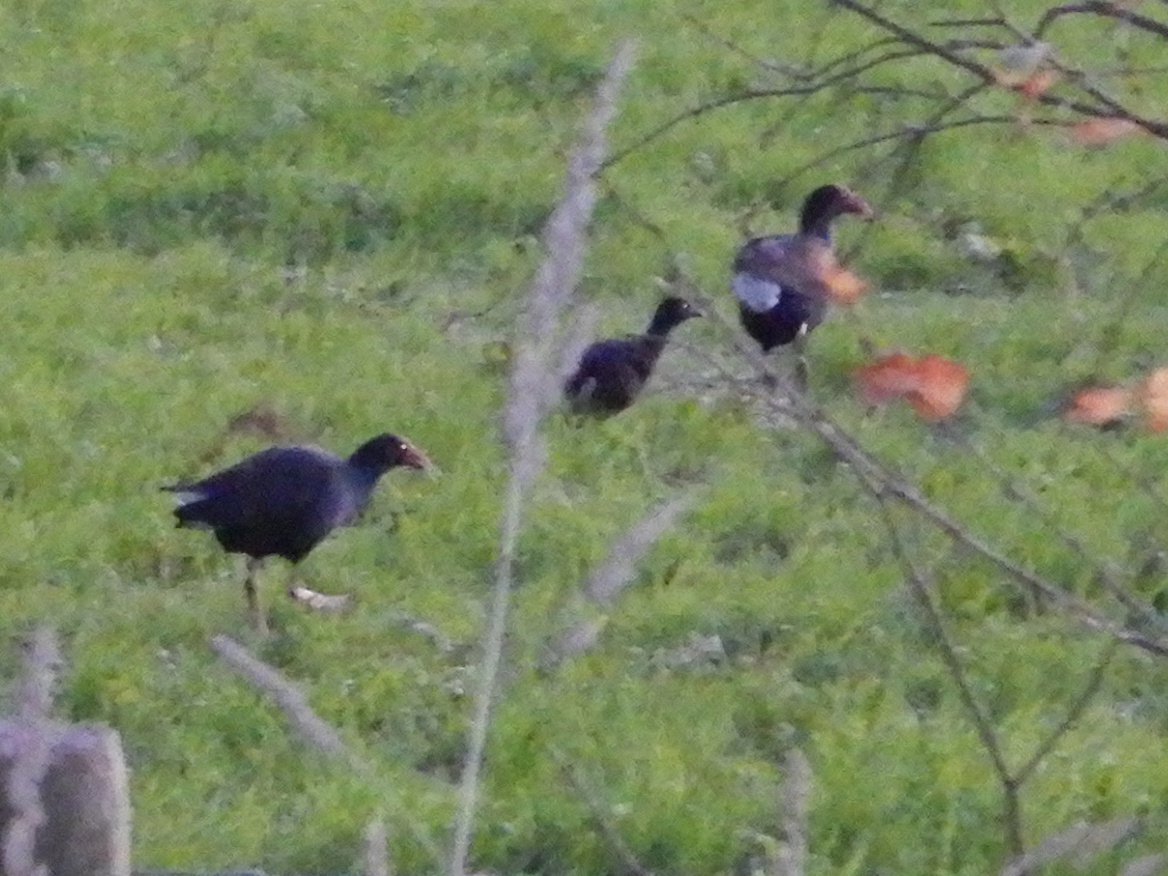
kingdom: Animalia
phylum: Chordata
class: Aves
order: Gruiformes
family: Rallidae
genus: Porphyrio
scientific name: Porphyrio melanotus
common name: Australasian swamphen
